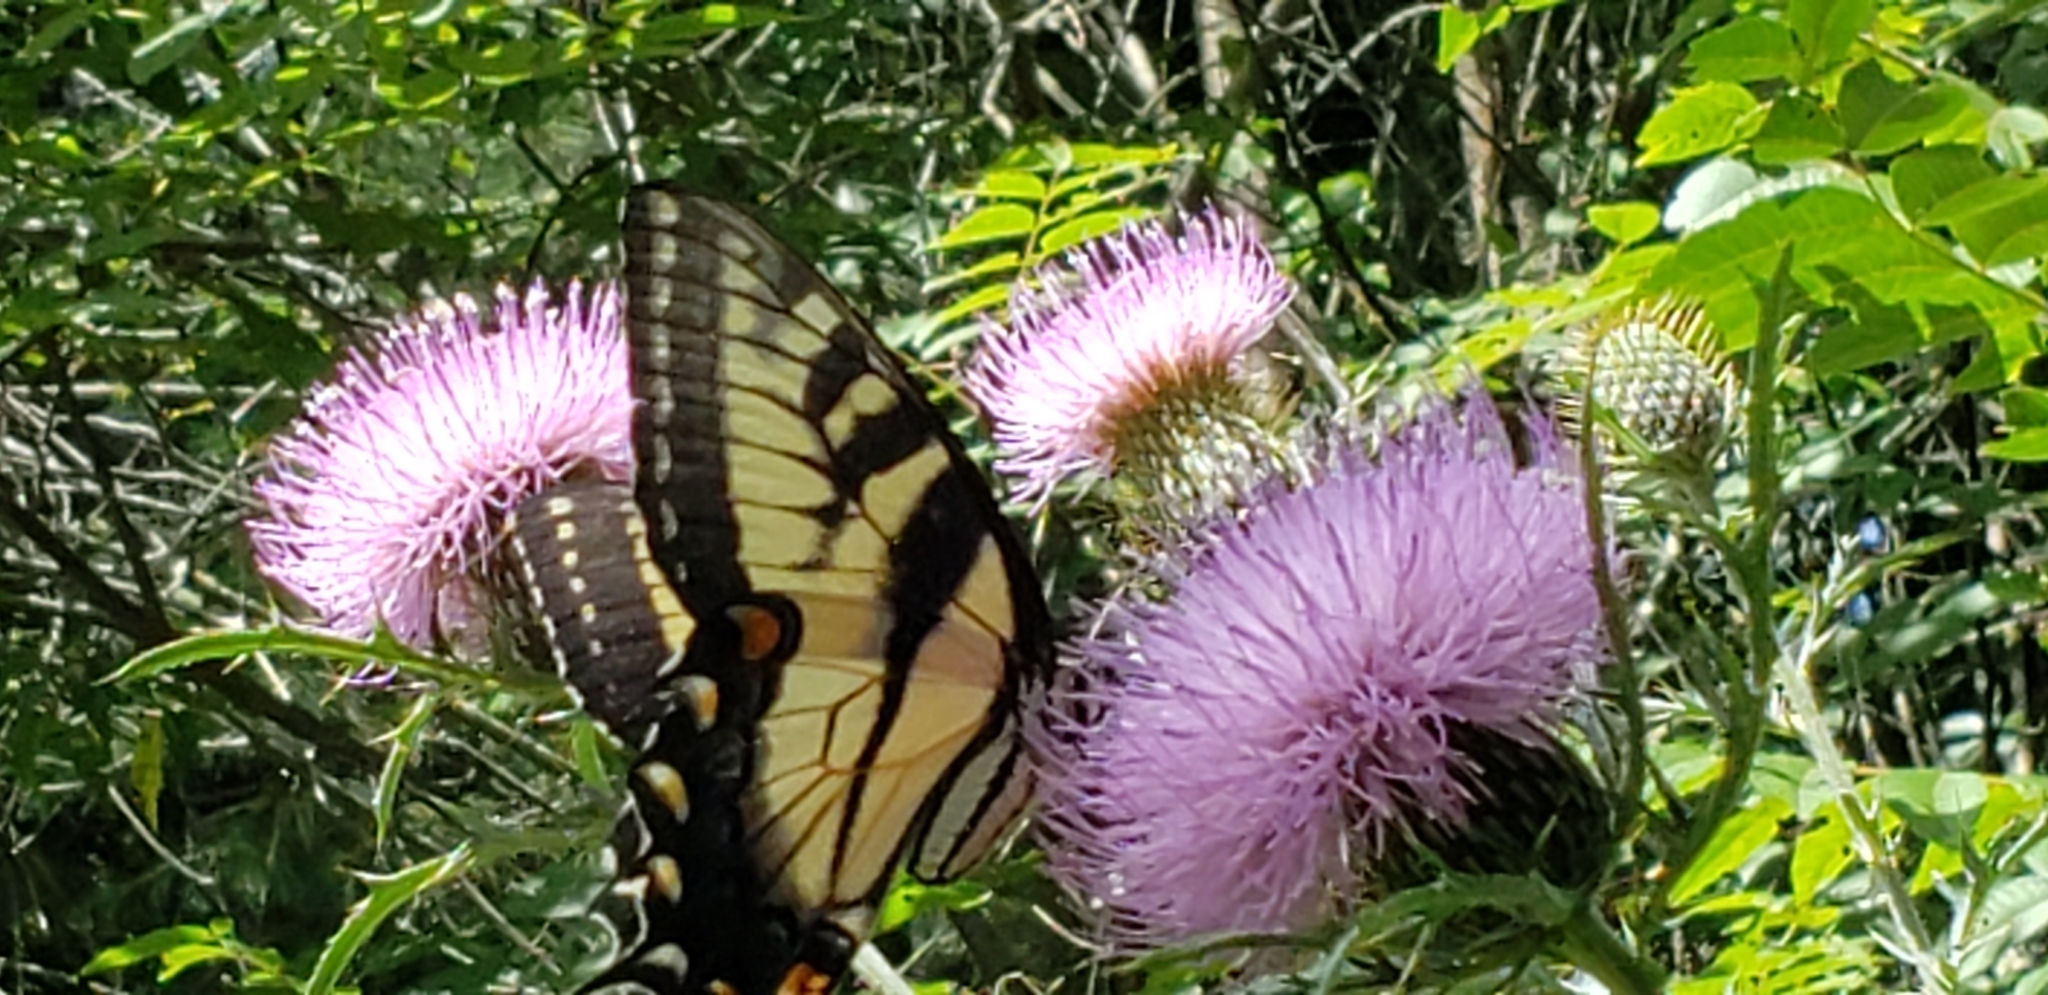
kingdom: Animalia
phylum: Arthropoda
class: Insecta
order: Lepidoptera
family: Papilionidae
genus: Papilio
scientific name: Papilio glaucus
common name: Tiger swallowtail
